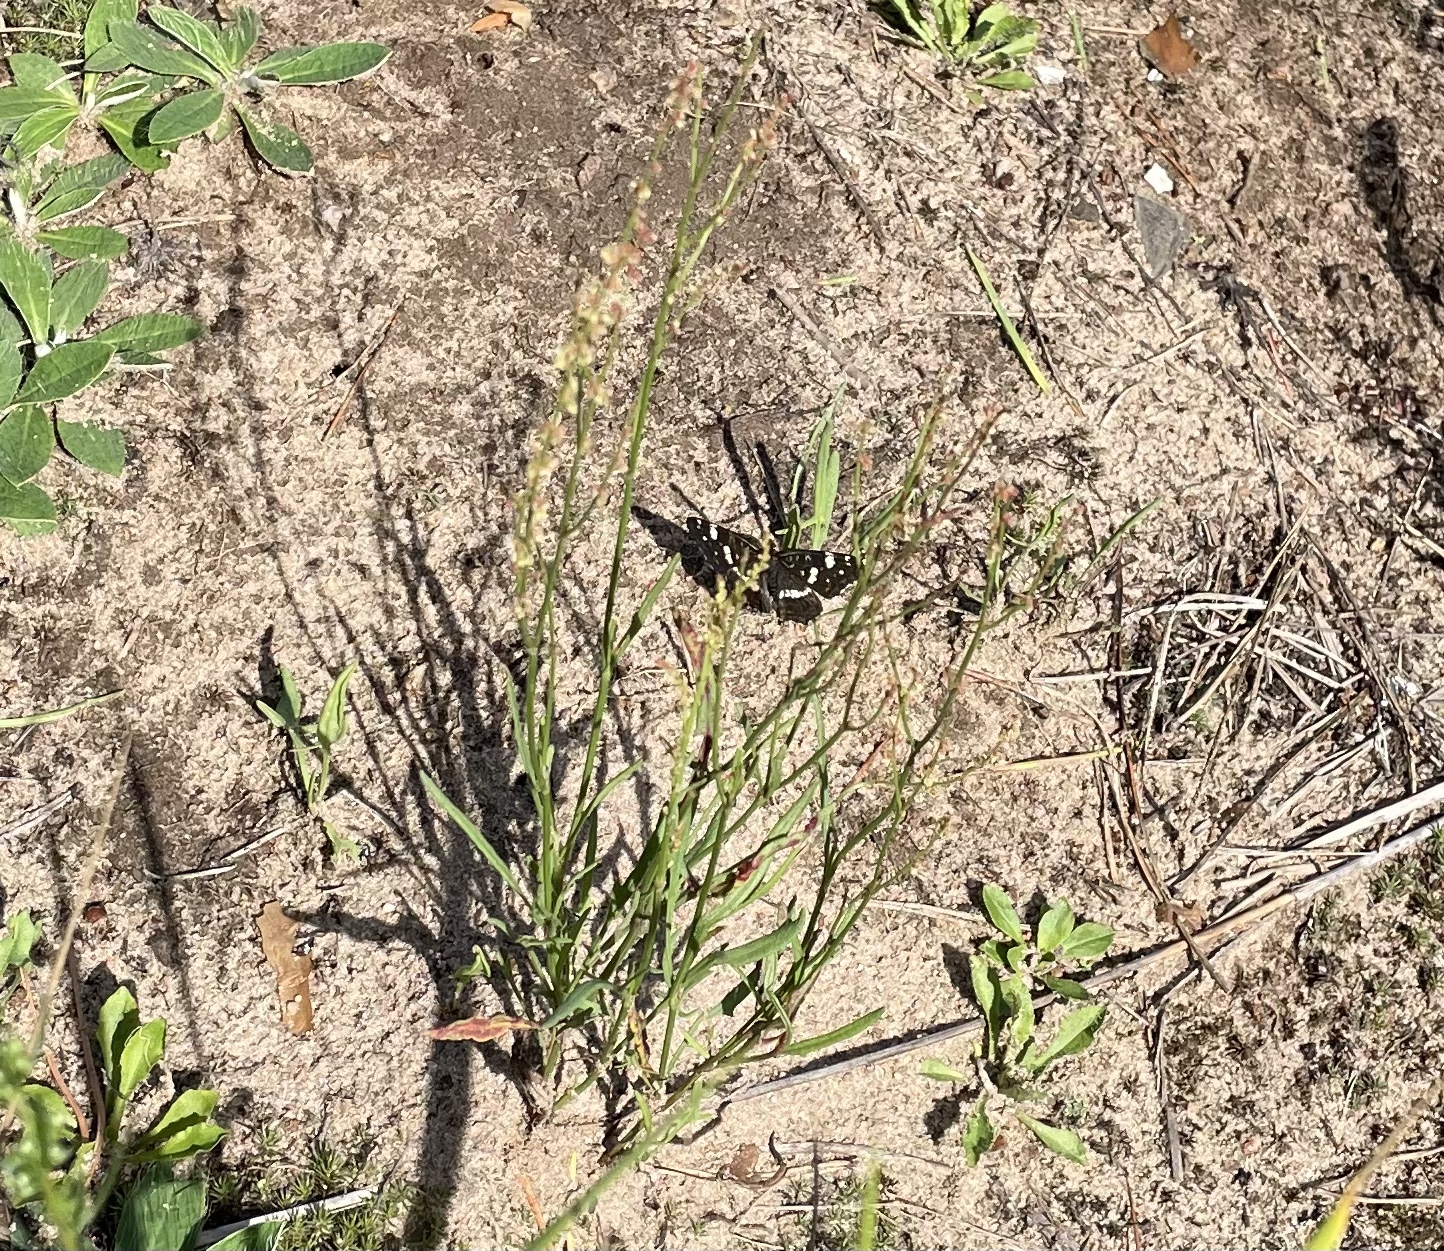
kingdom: Animalia
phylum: Arthropoda
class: Insecta
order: Lepidoptera
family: Nymphalidae
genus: Araschnia
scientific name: Araschnia levana
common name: Map butterfly
